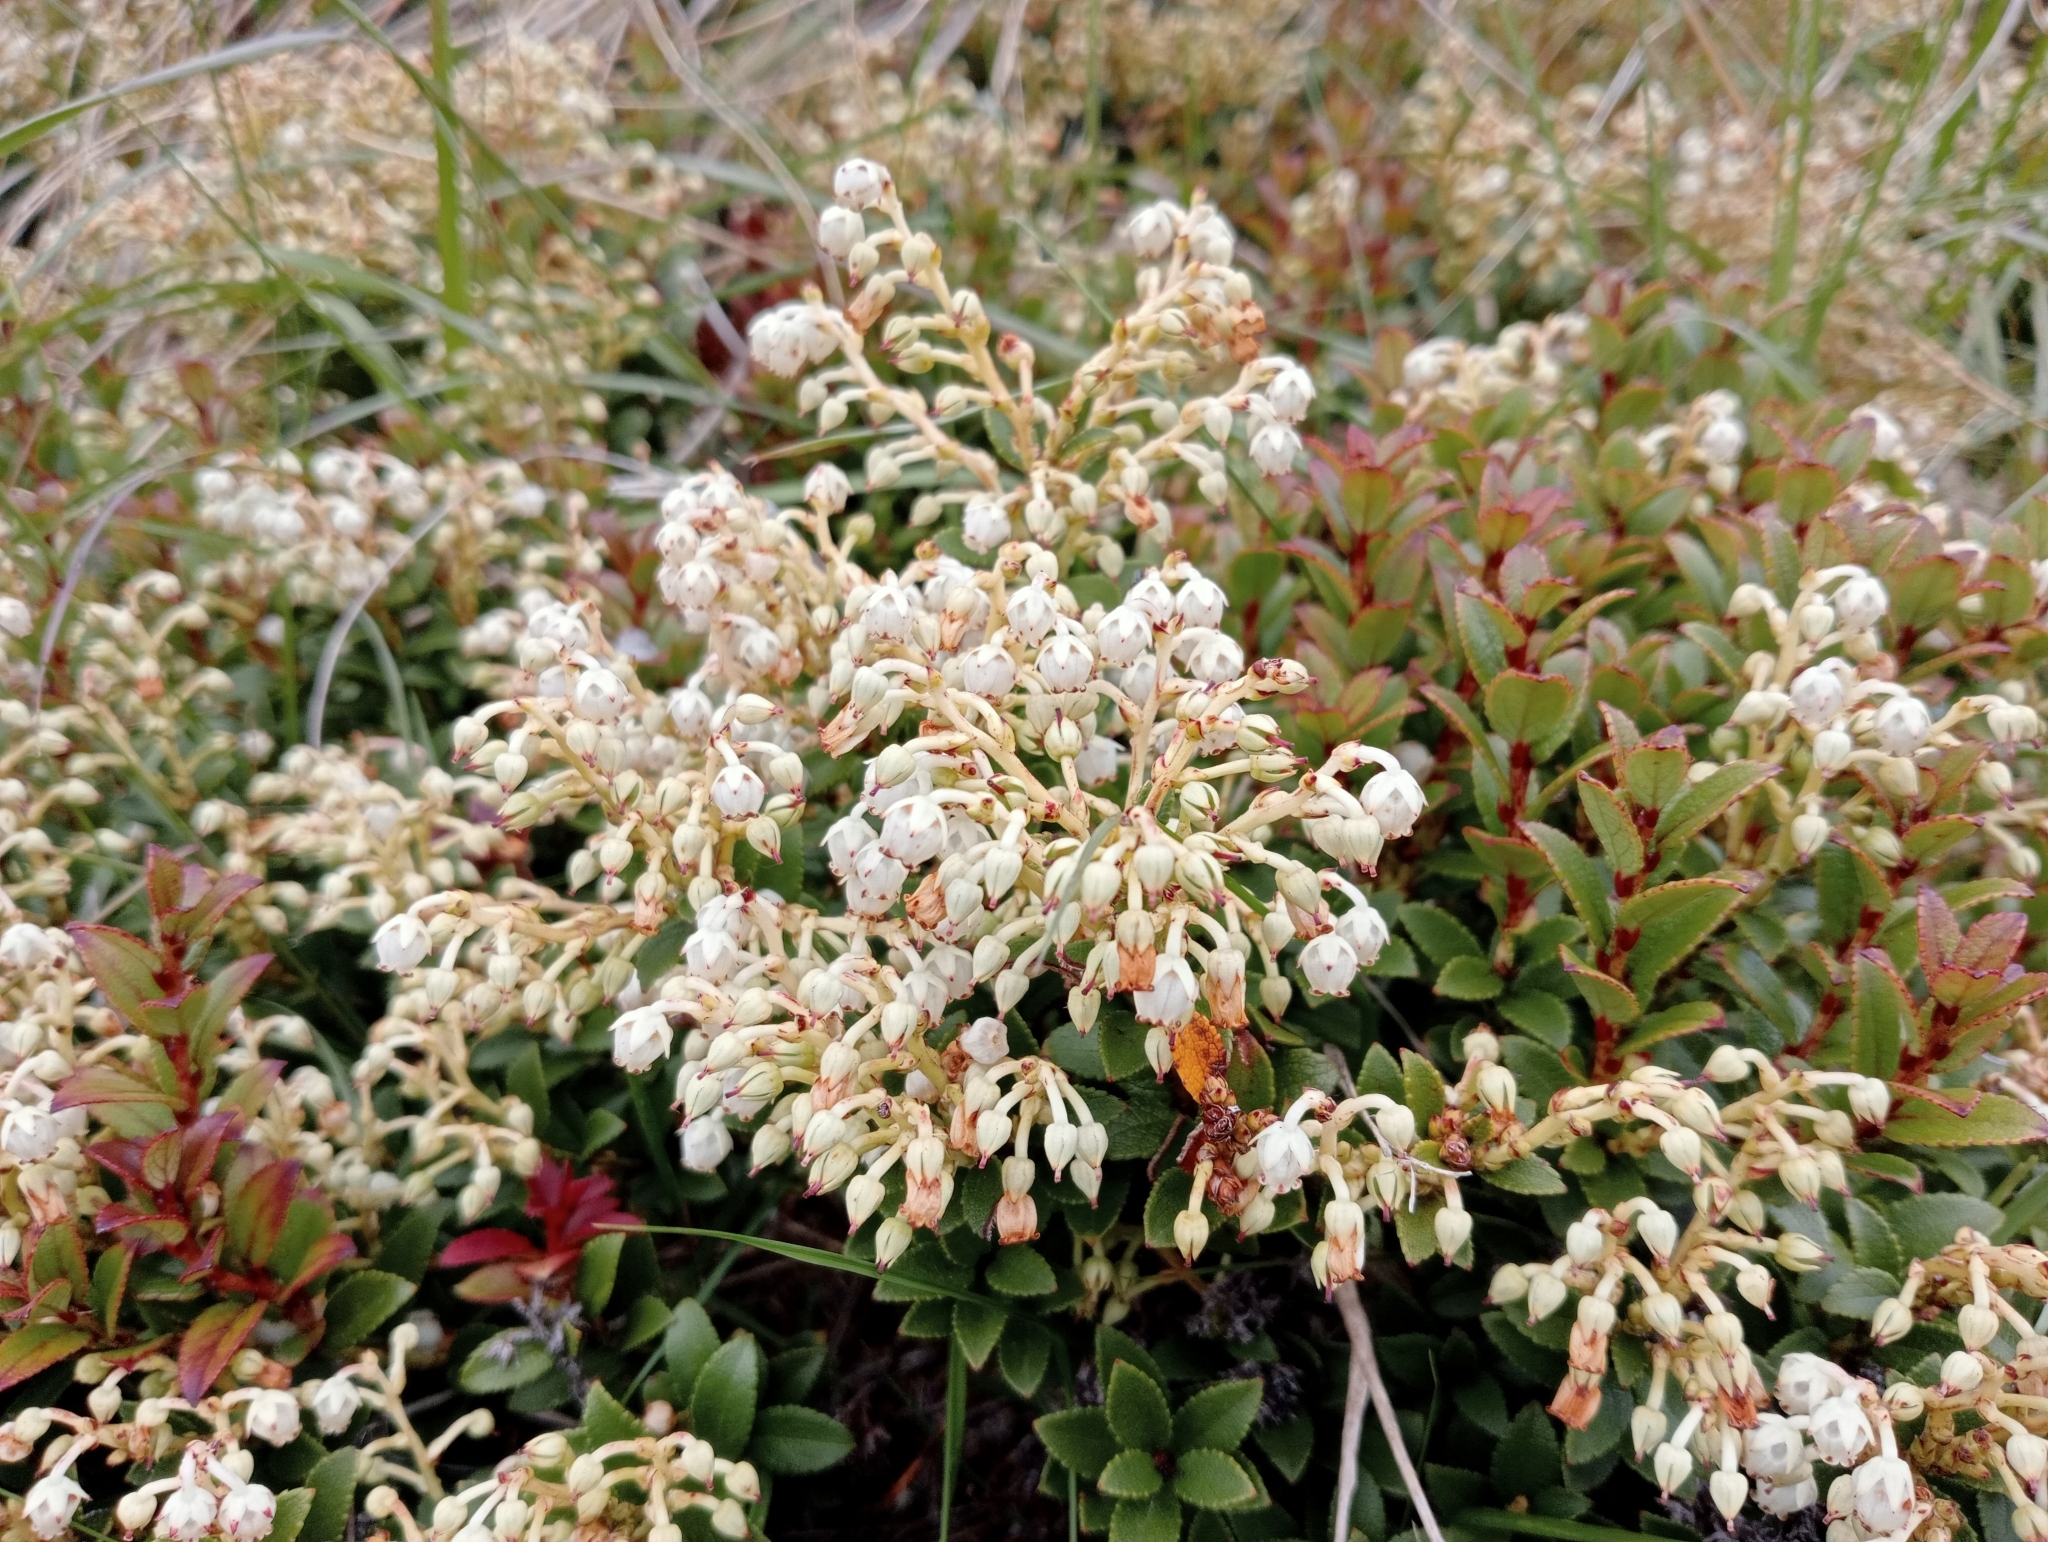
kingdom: Plantae
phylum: Tracheophyta
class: Magnoliopsida
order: Ericales
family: Ericaceae
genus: Gaultheria
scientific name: Gaultheria crassa
